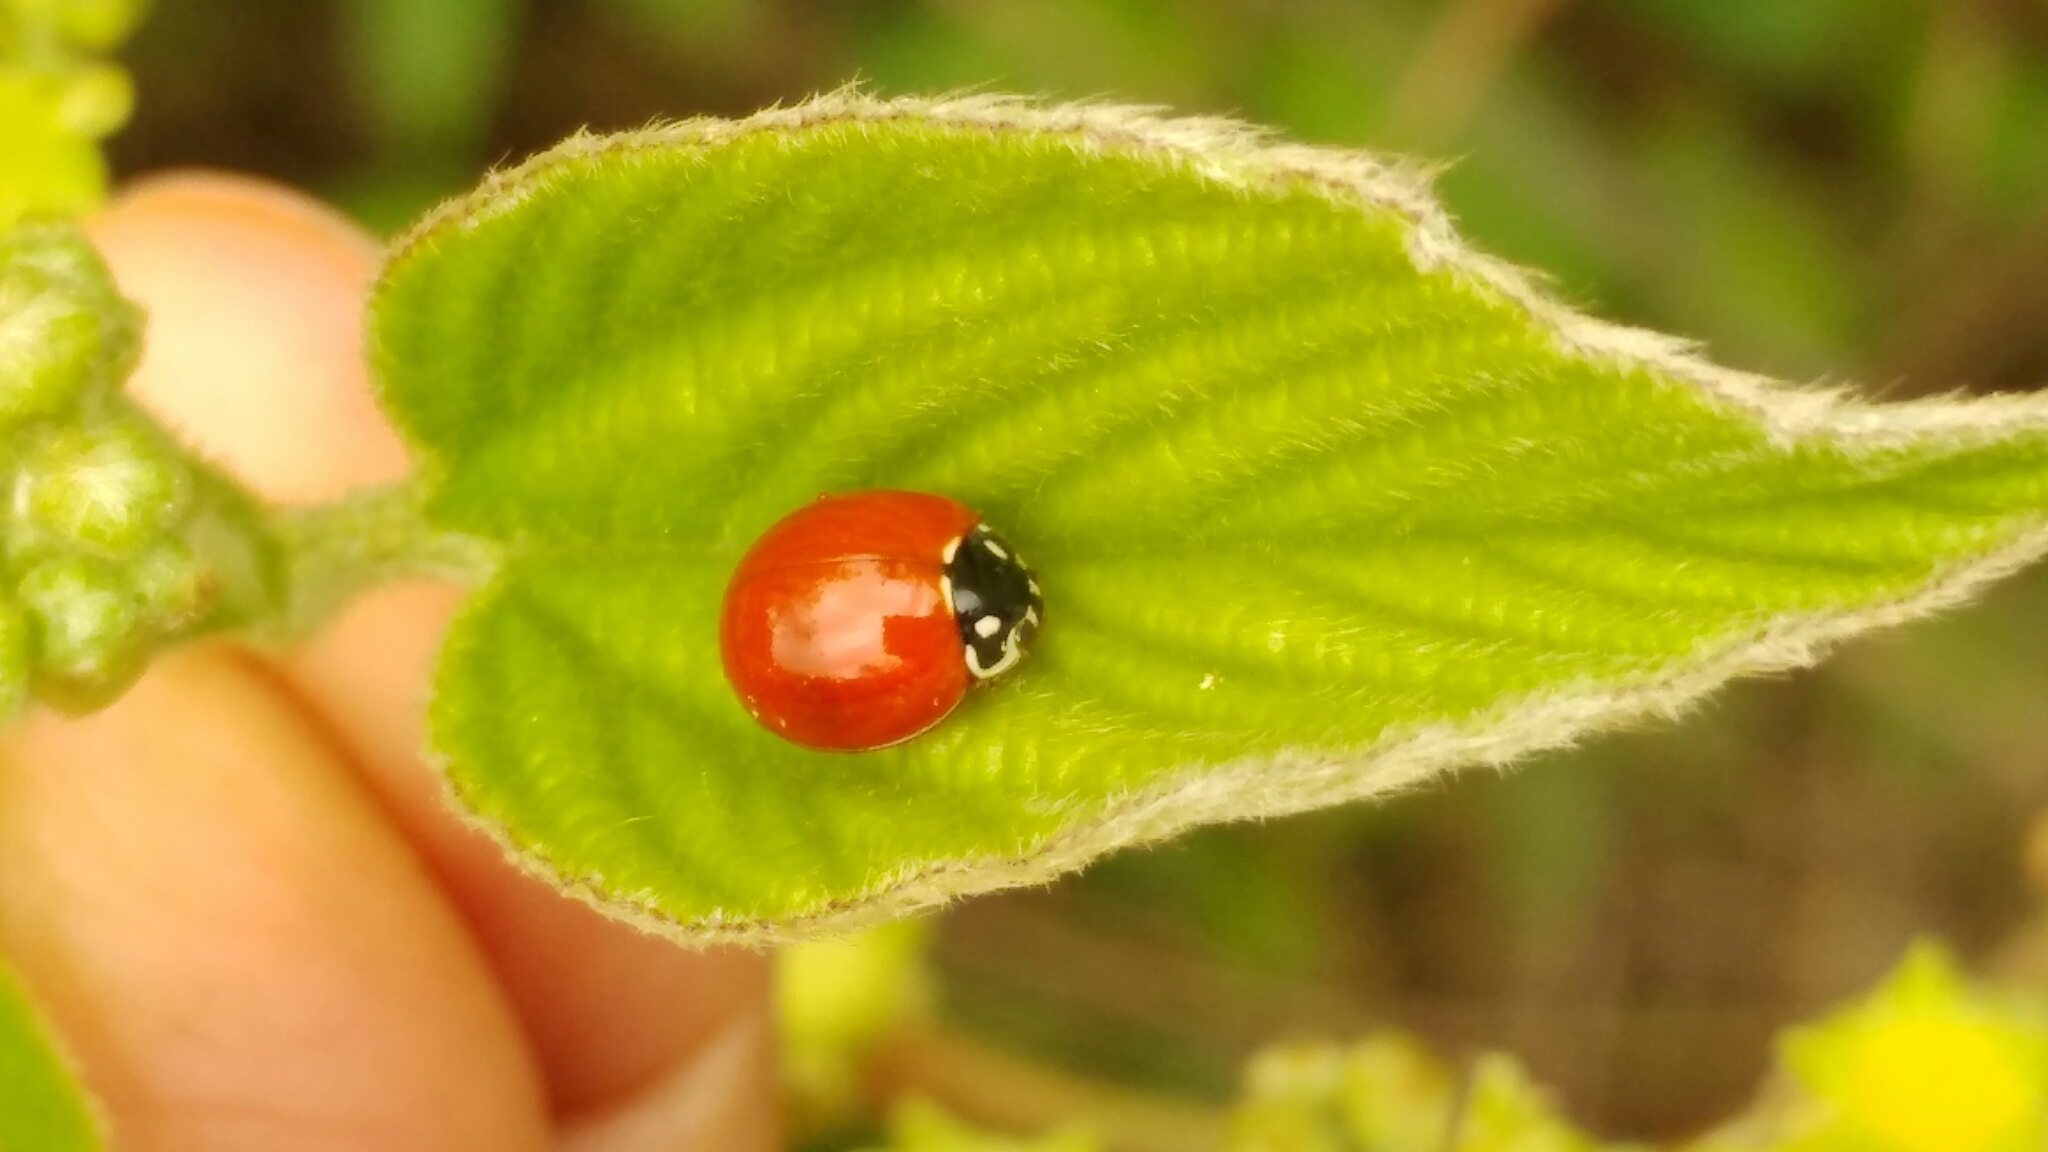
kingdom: Animalia
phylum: Arthropoda
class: Insecta
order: Coleoptera
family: Coccinellidae
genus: Cycloneda
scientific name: Cycloneda sanguinea
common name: Ladybird beetle
